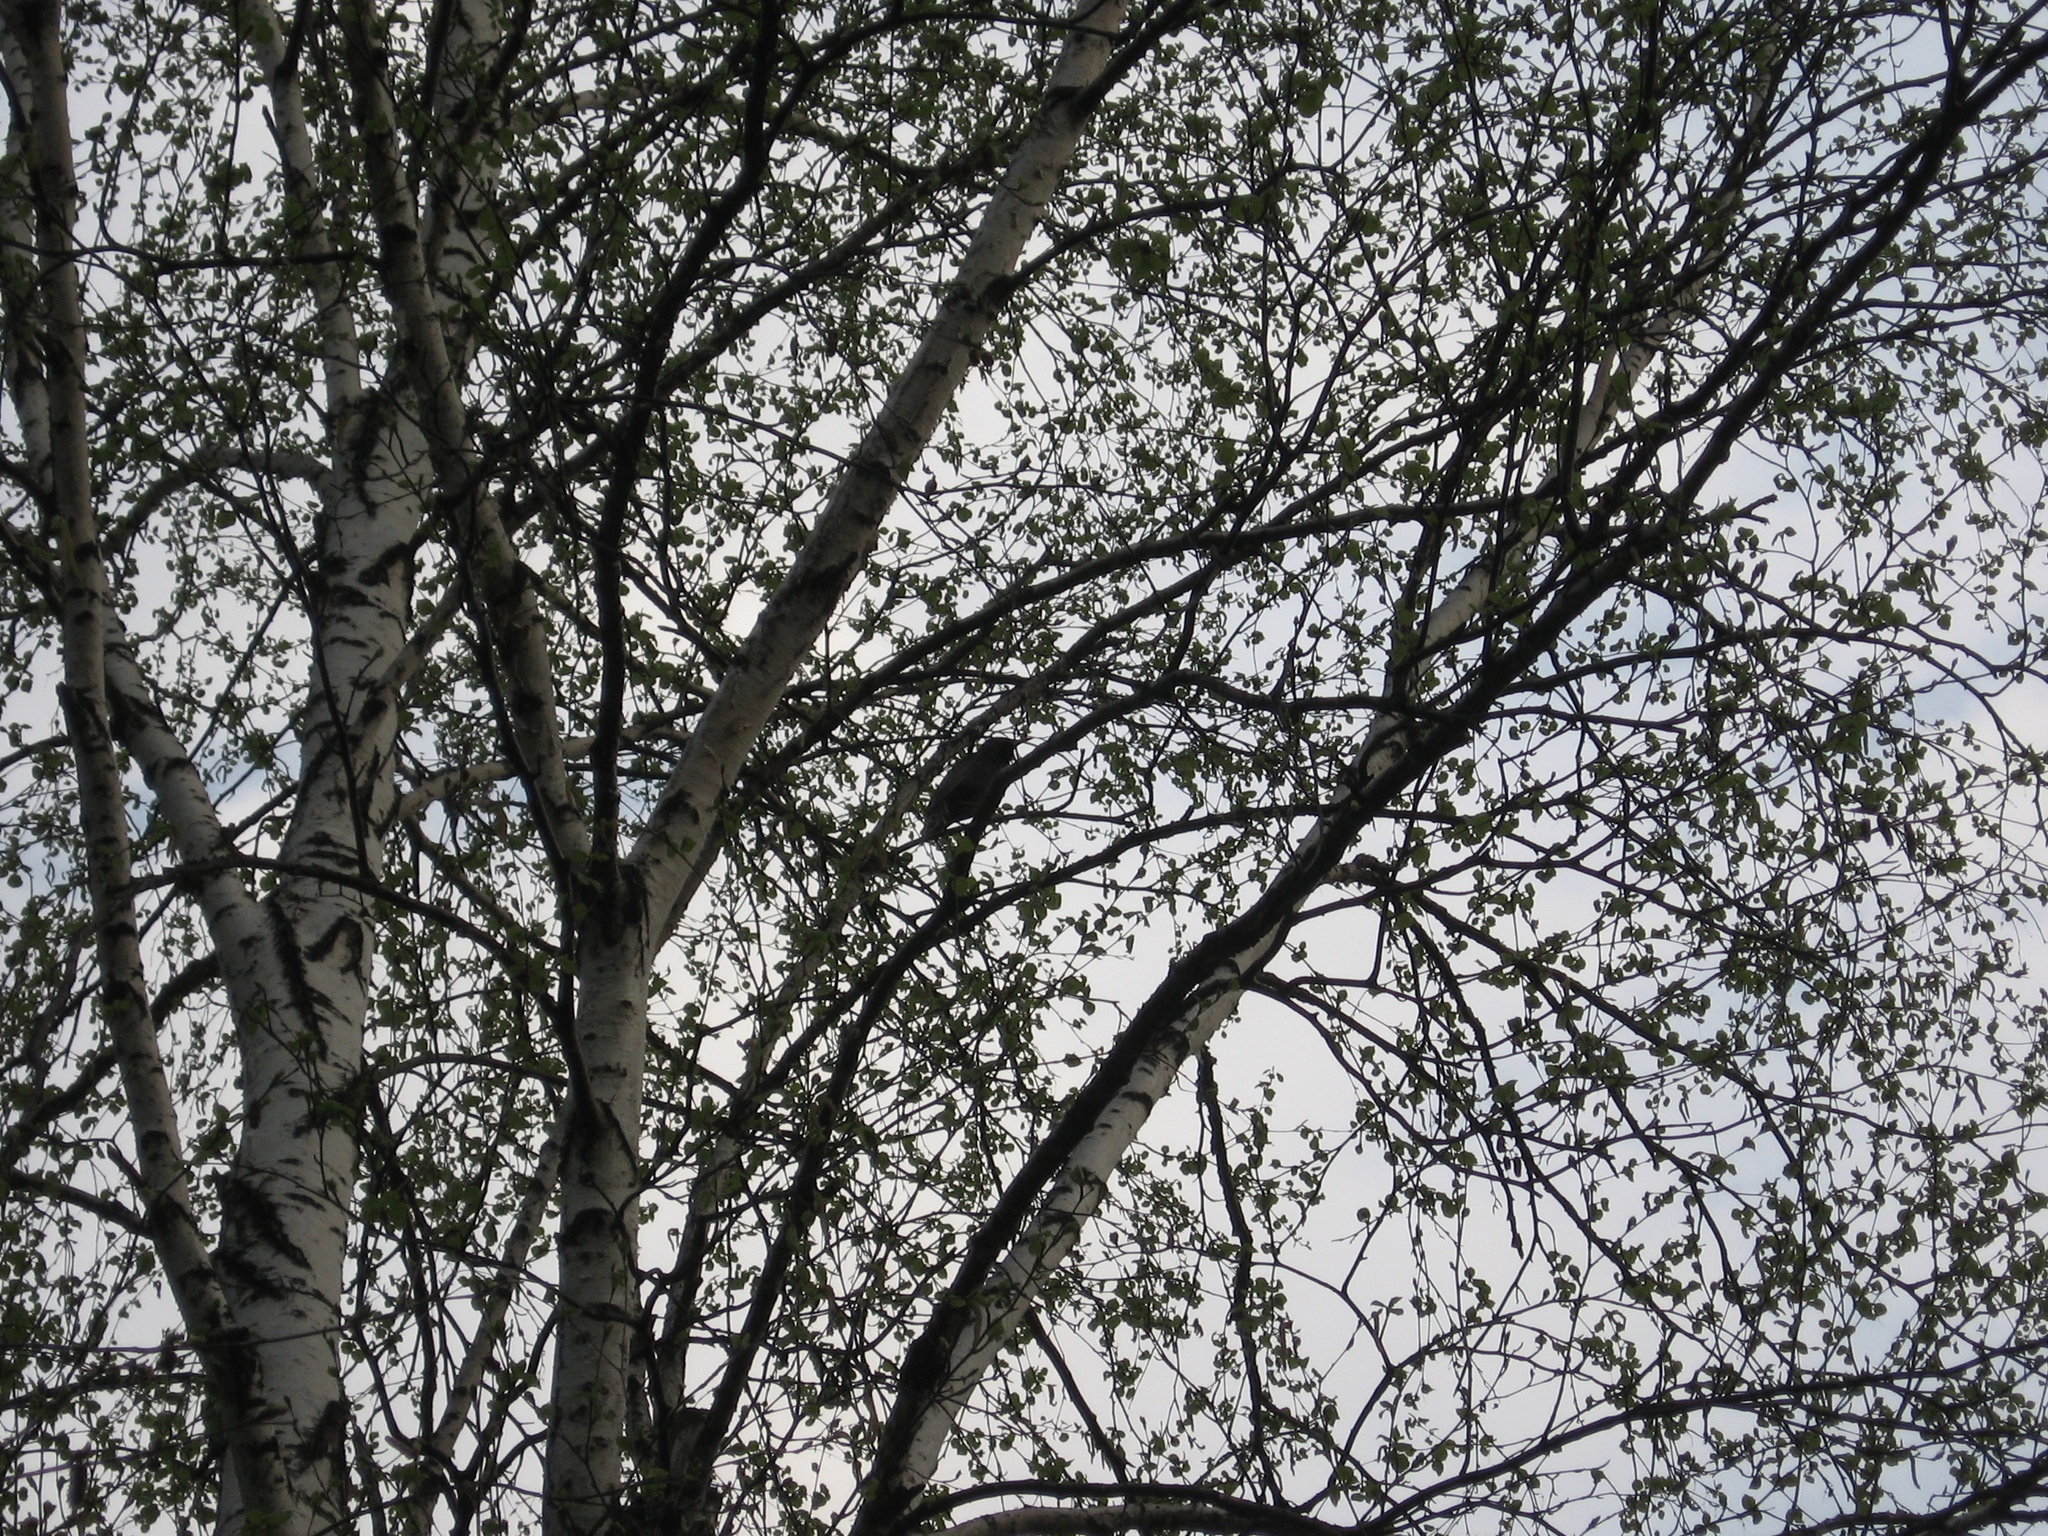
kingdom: Animalia
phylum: Chordata
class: Aves
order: Passeriformes
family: Sturnidae
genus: Sturnus
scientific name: Sturnus vulgaris
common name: Common starling
